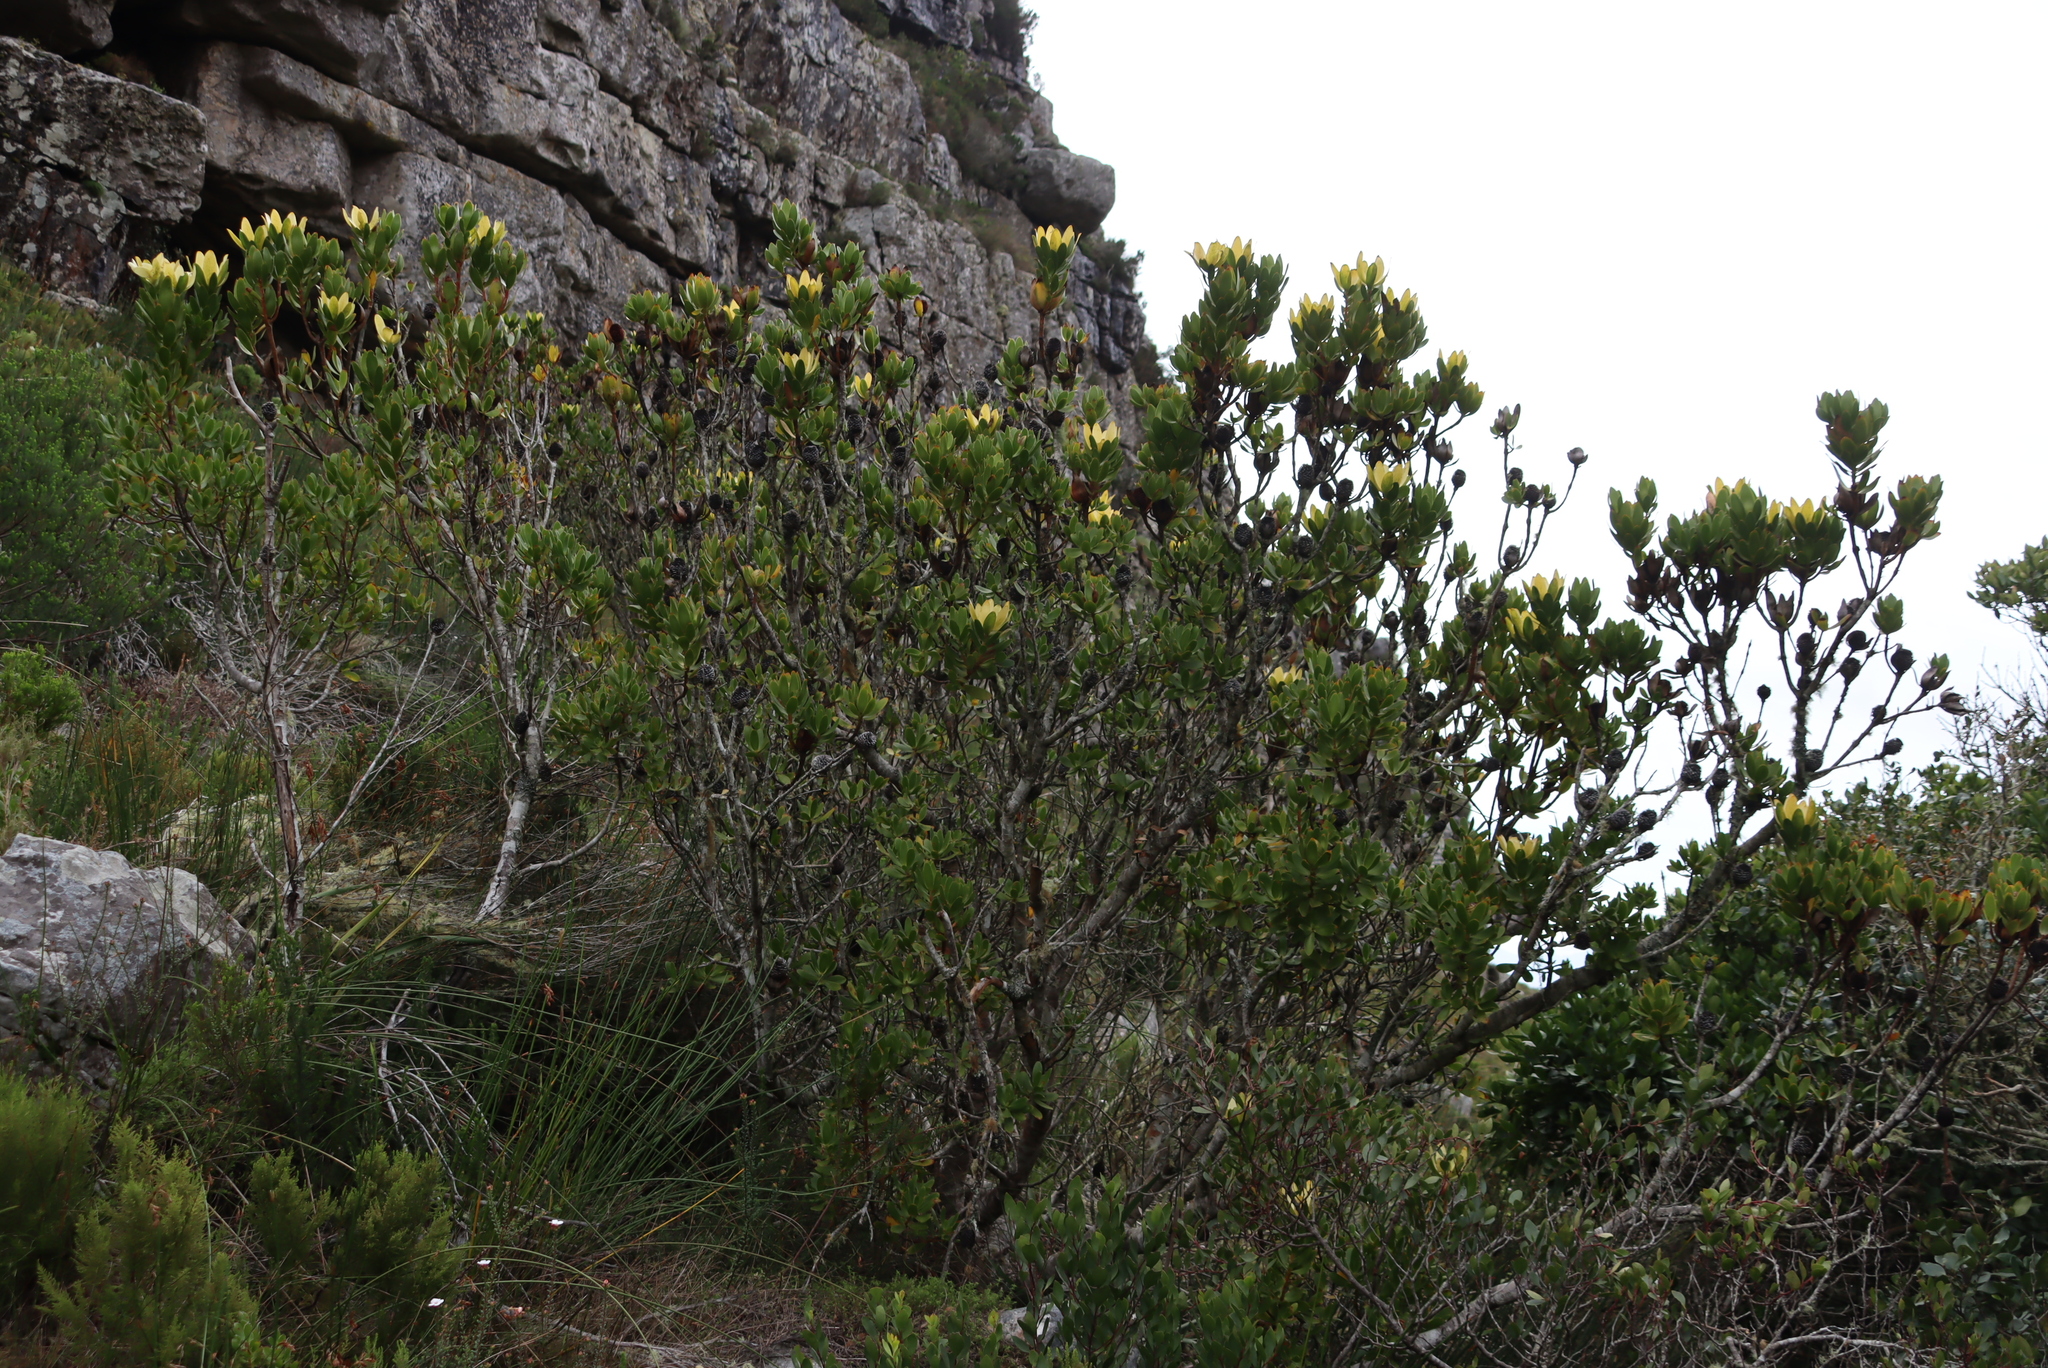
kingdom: Plantae
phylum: Tracheophyta
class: Magnoliopsida
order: Proteales
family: Proteaceae
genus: Leucadendron
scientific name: Leucadendron strobilinum
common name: Mountain rose
